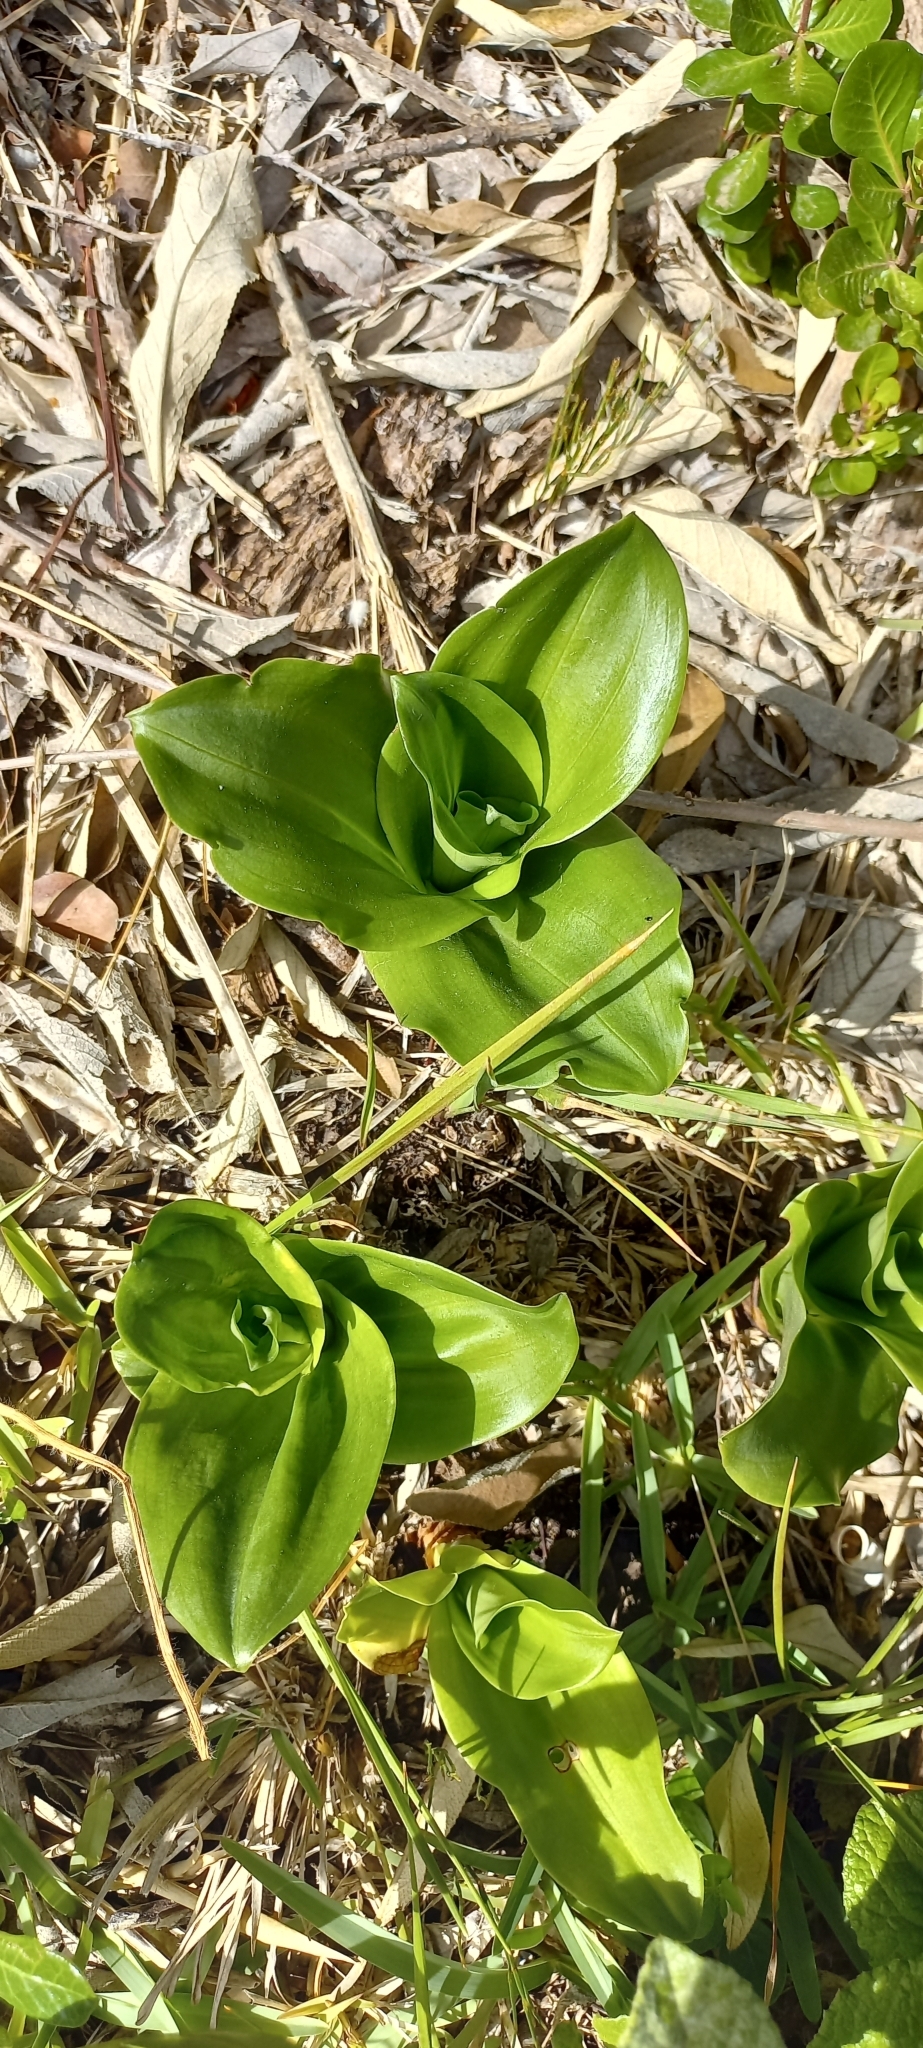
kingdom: Plantae
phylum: Tracheophyta
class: Liliopsida
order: Asparagales
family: Orchidaceae
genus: Bonatea
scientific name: Bonatea speciosa
